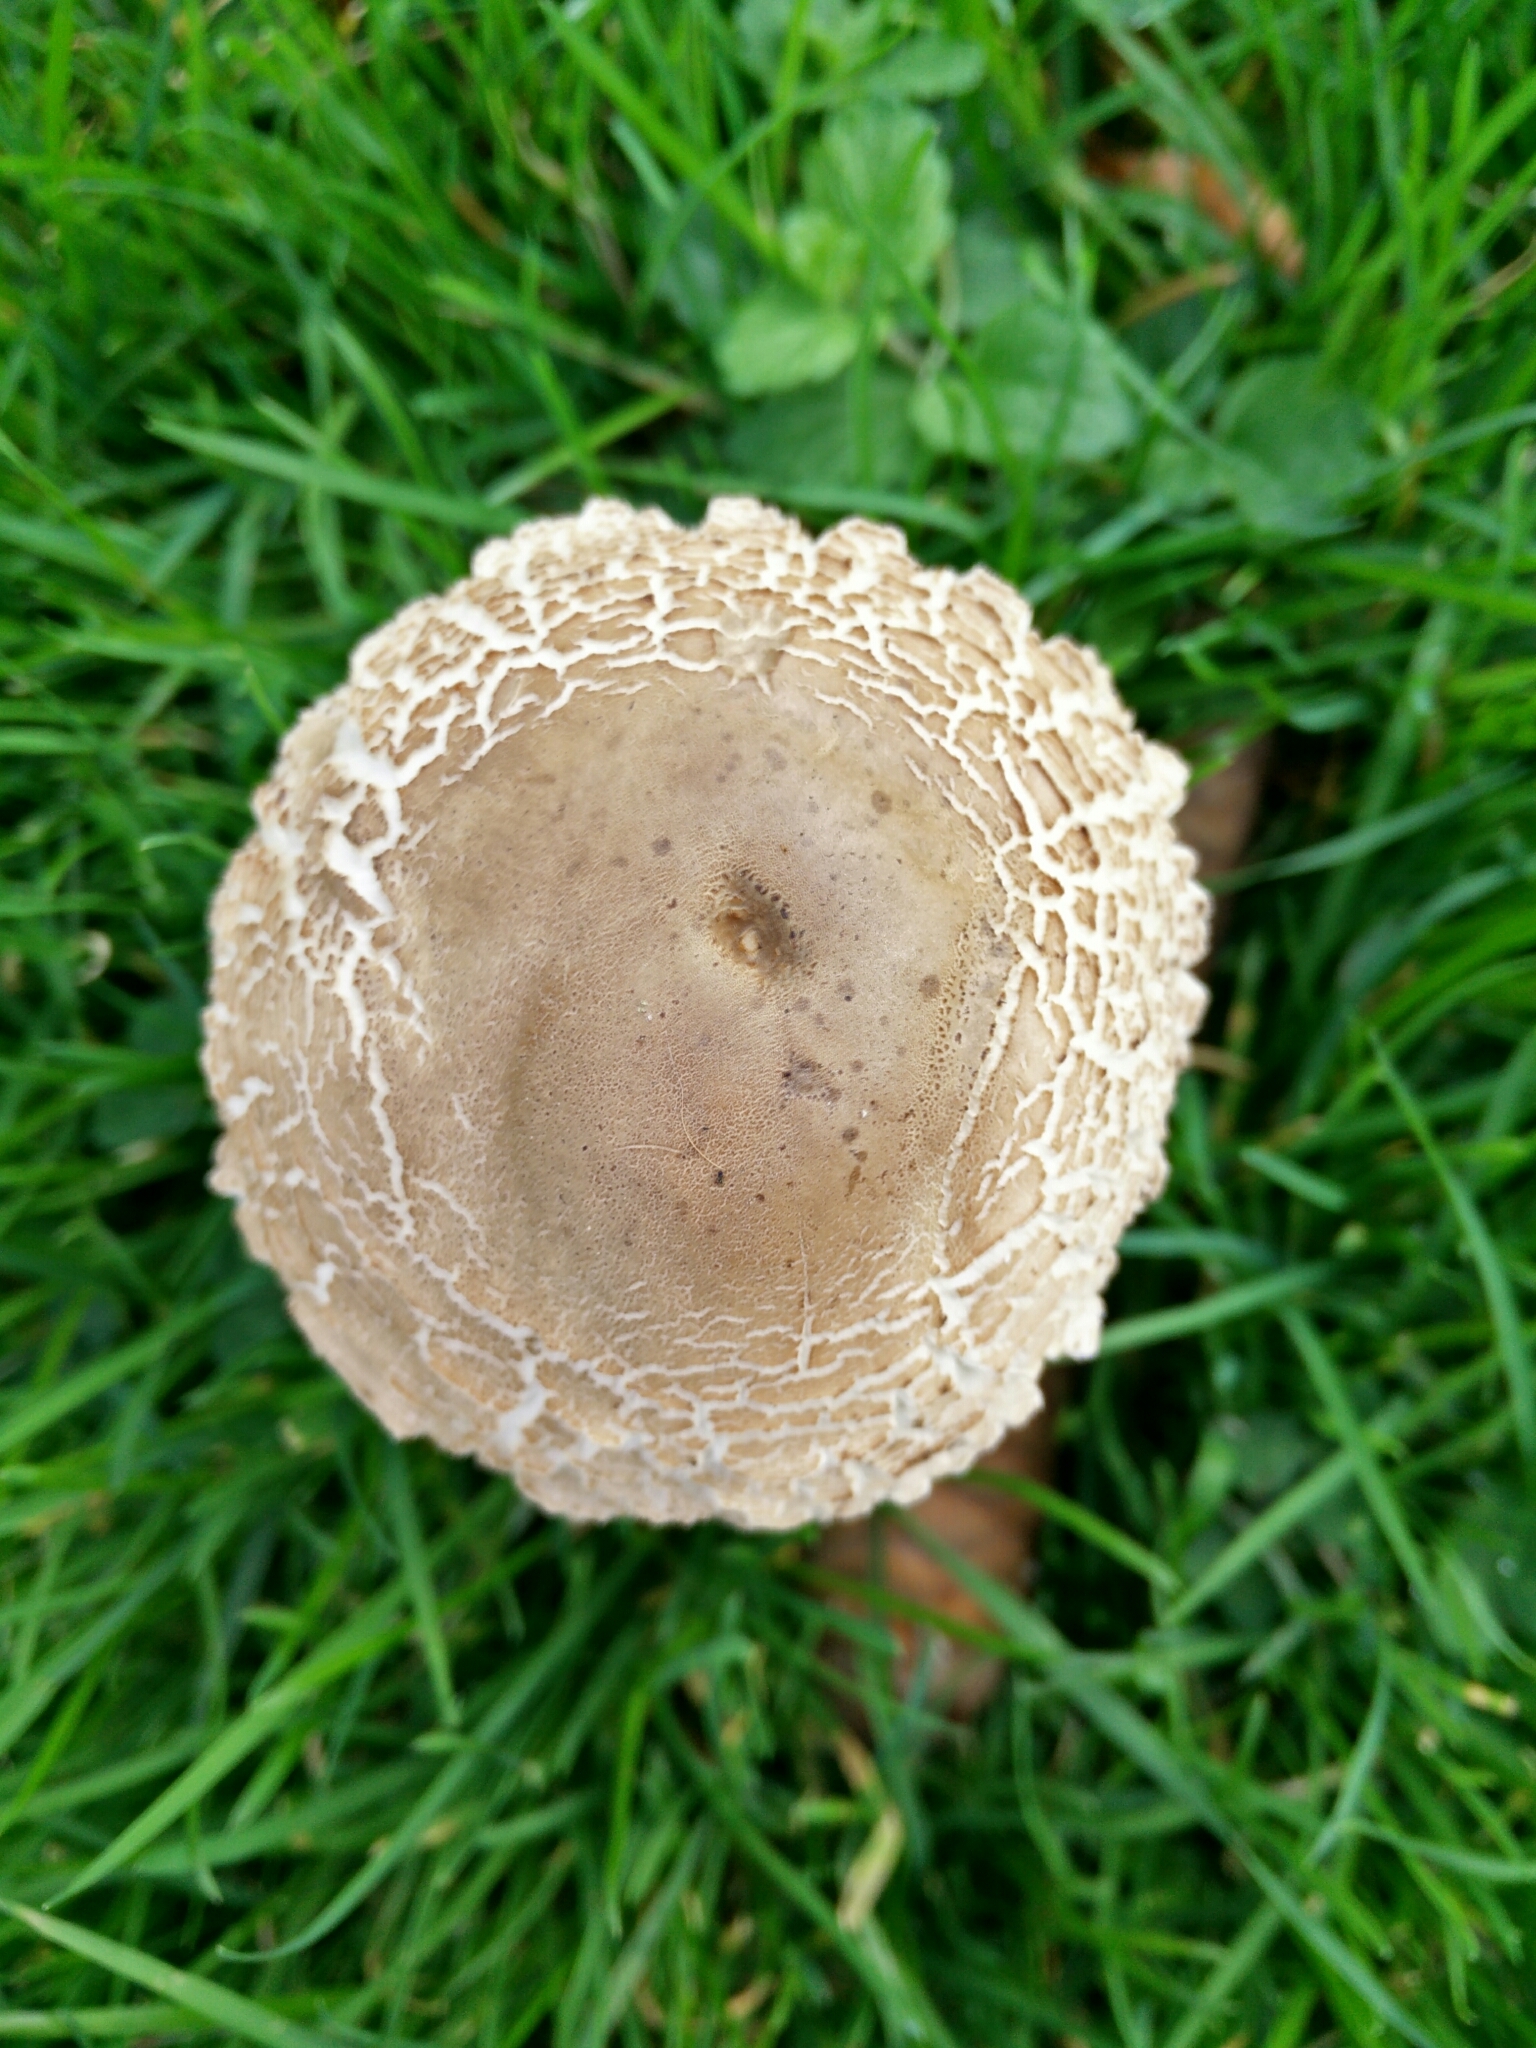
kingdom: Fungi
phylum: Basidiomycota
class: Agaricomycetes
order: Agaricales
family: Agaricaceae
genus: Chlorophyllum
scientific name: Chlorophyllum rhacodes
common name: Shaggy parasol
